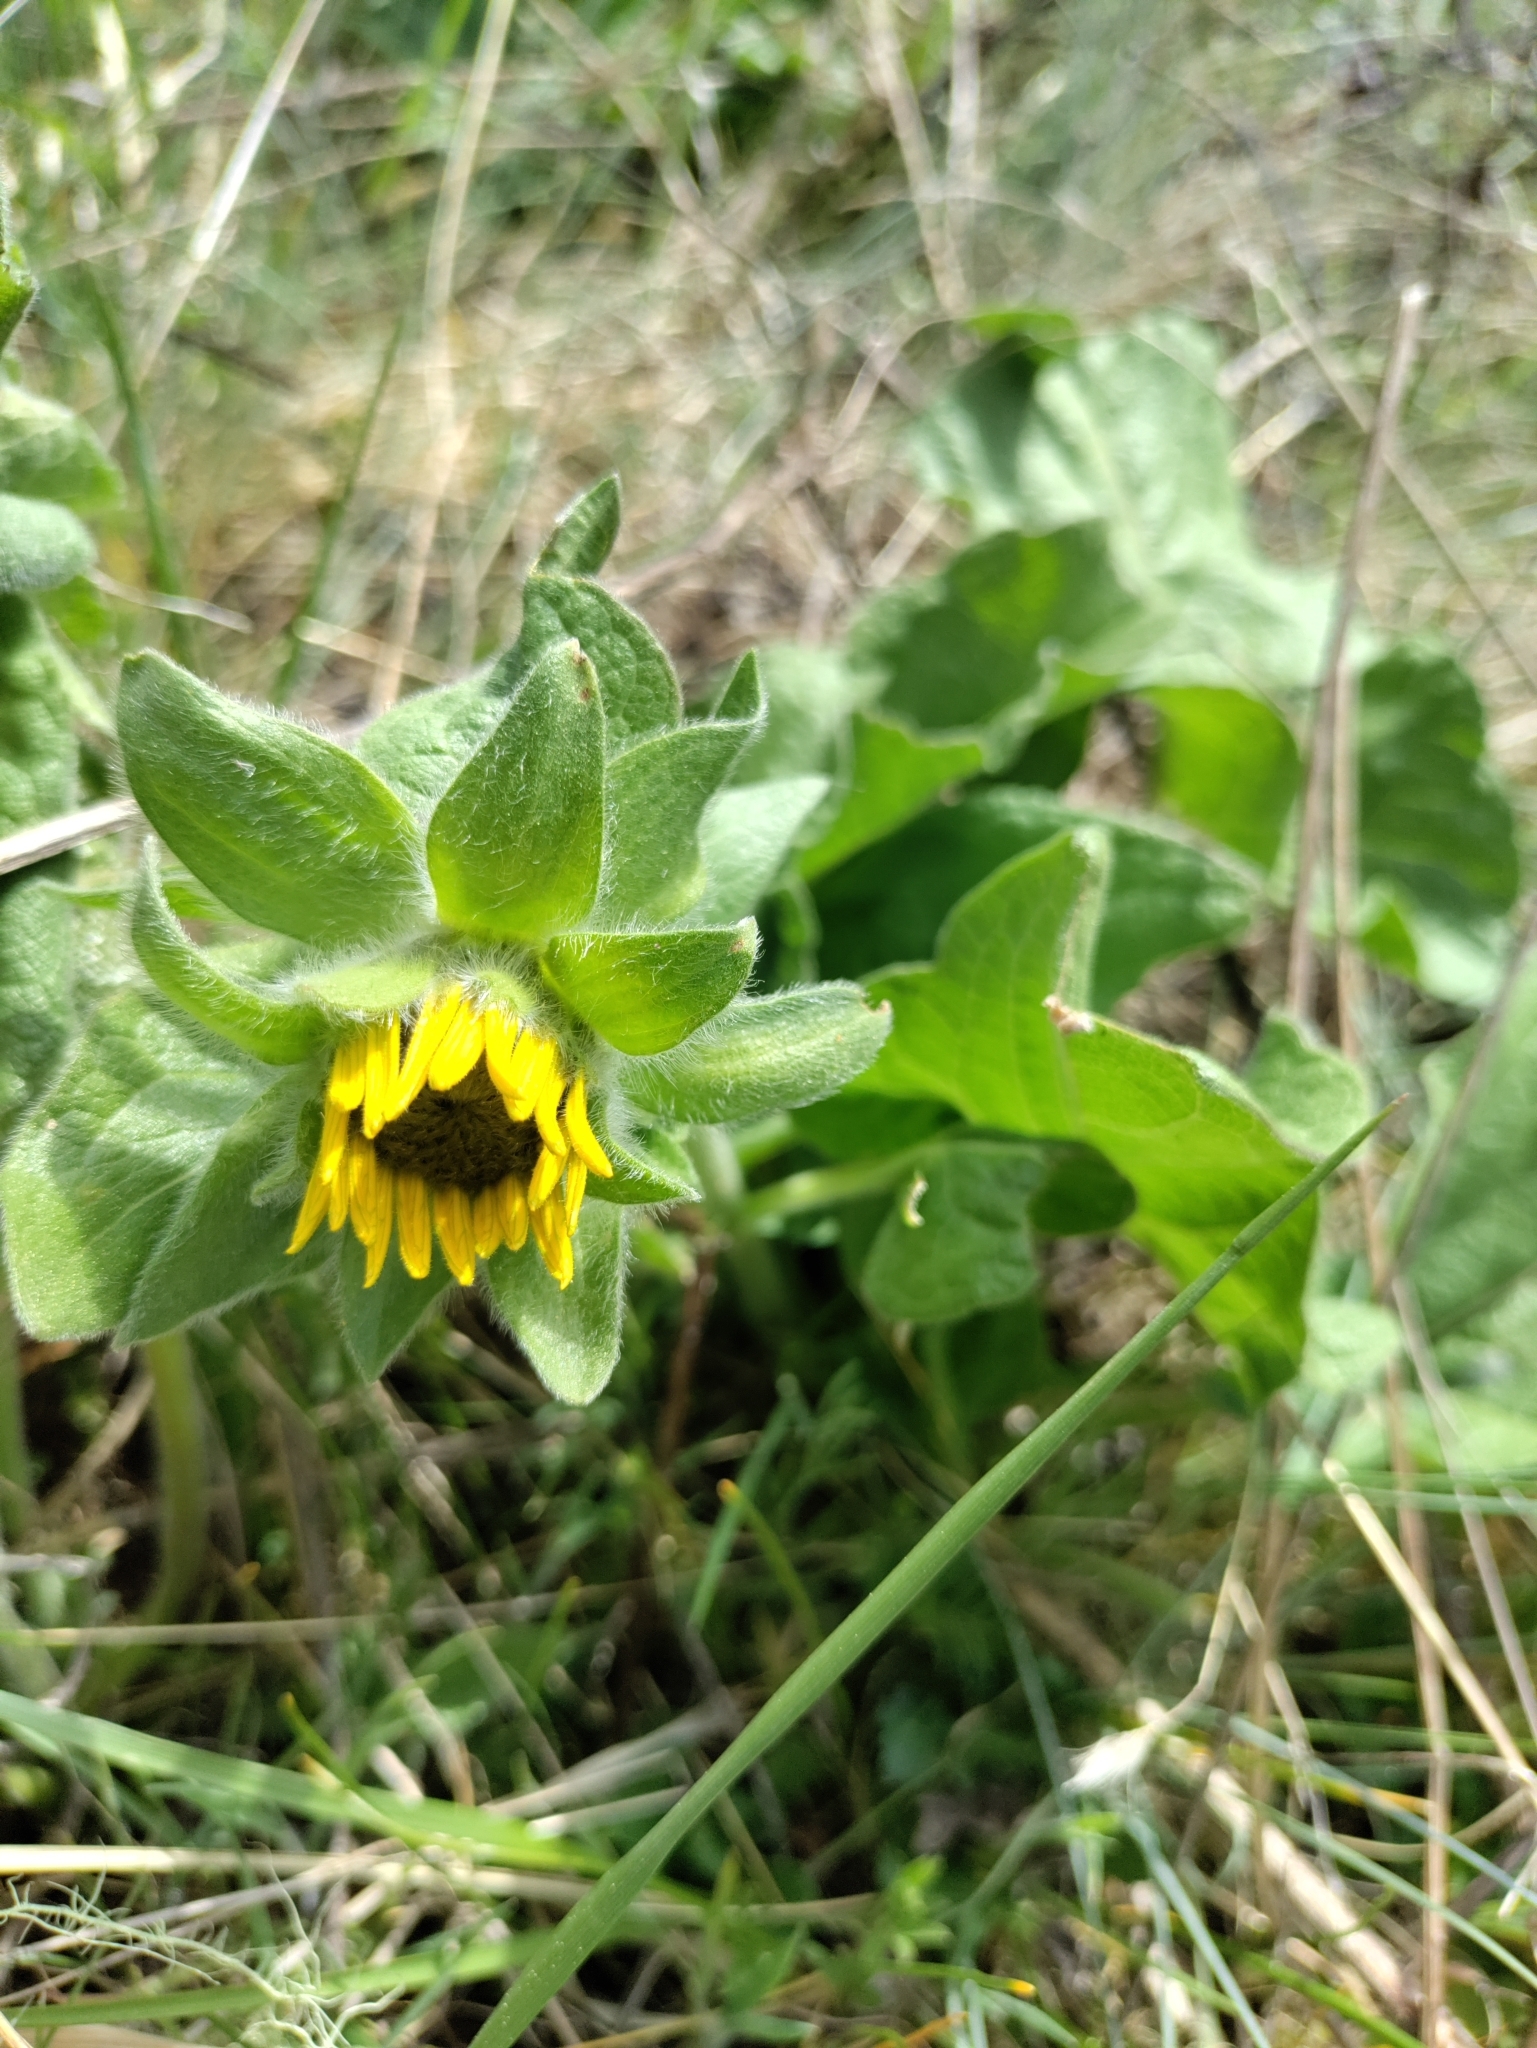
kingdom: Plantae
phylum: Tracheophyta
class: Magnoliopsida
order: Asterales
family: Asteraceae
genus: Balsamorhiza
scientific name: Balsamorhiza deltoidea
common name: Deltoid balsamroot
